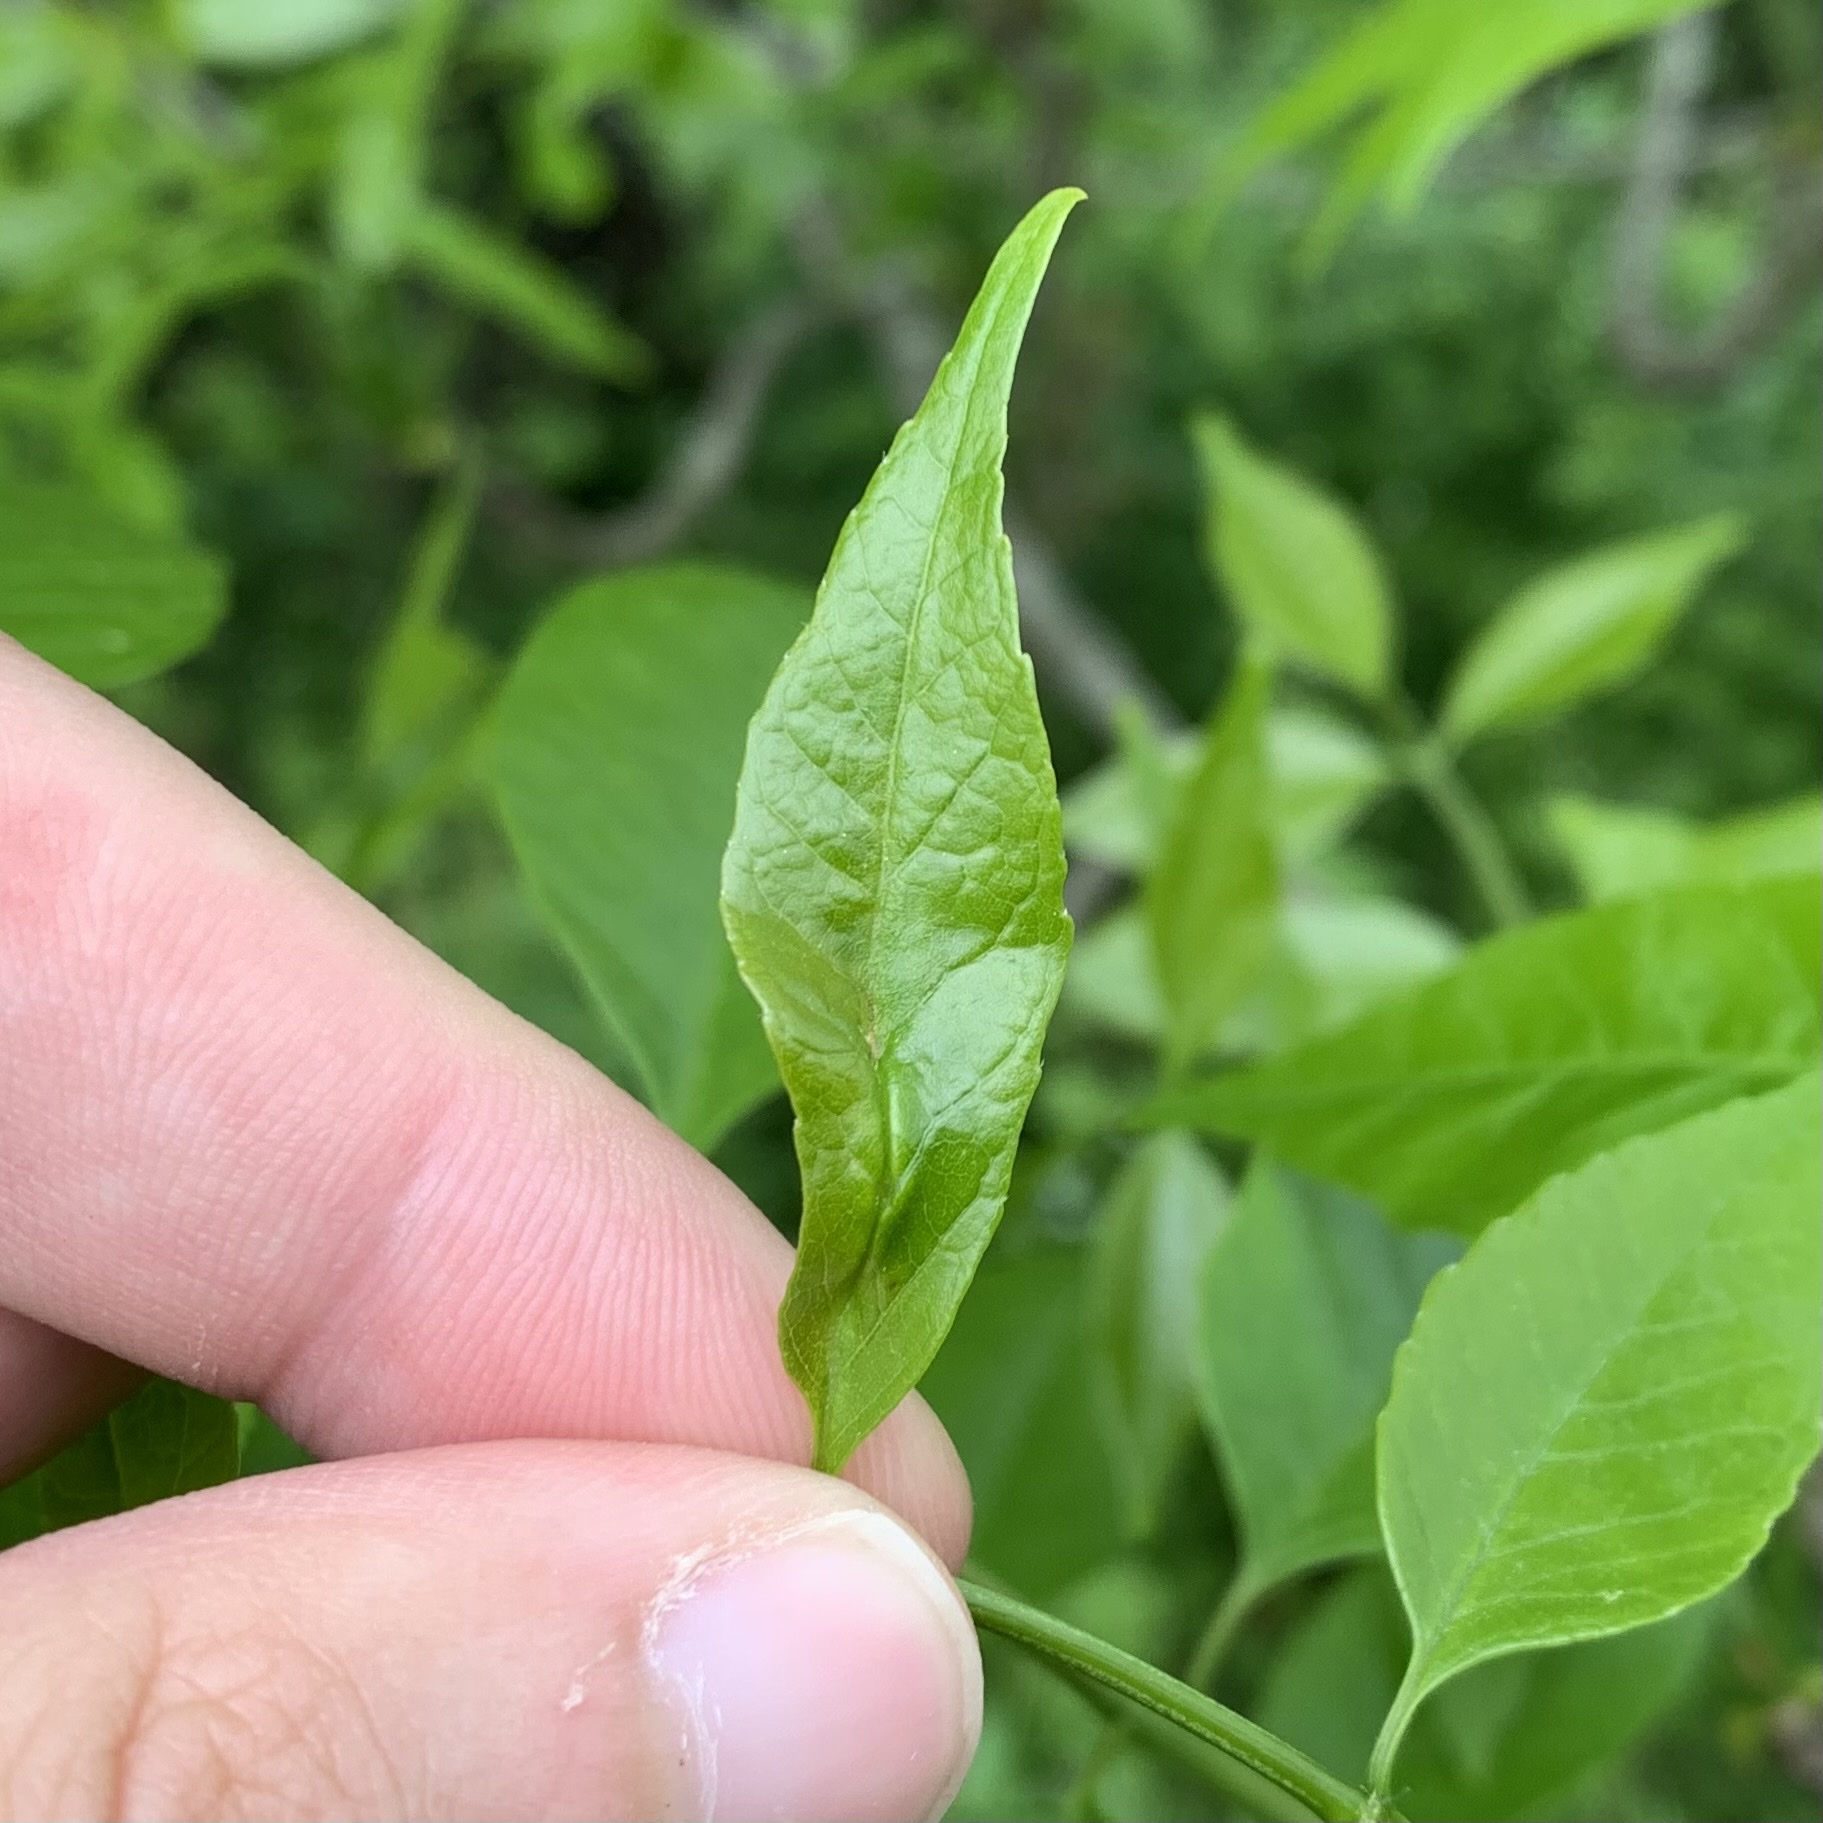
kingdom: Animalia
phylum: Arthropoda
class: Insecta
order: Diptera
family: Cecidomyiidae
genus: Dasineura
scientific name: Dasineura tumidosae
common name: Ash petiole gall midge
